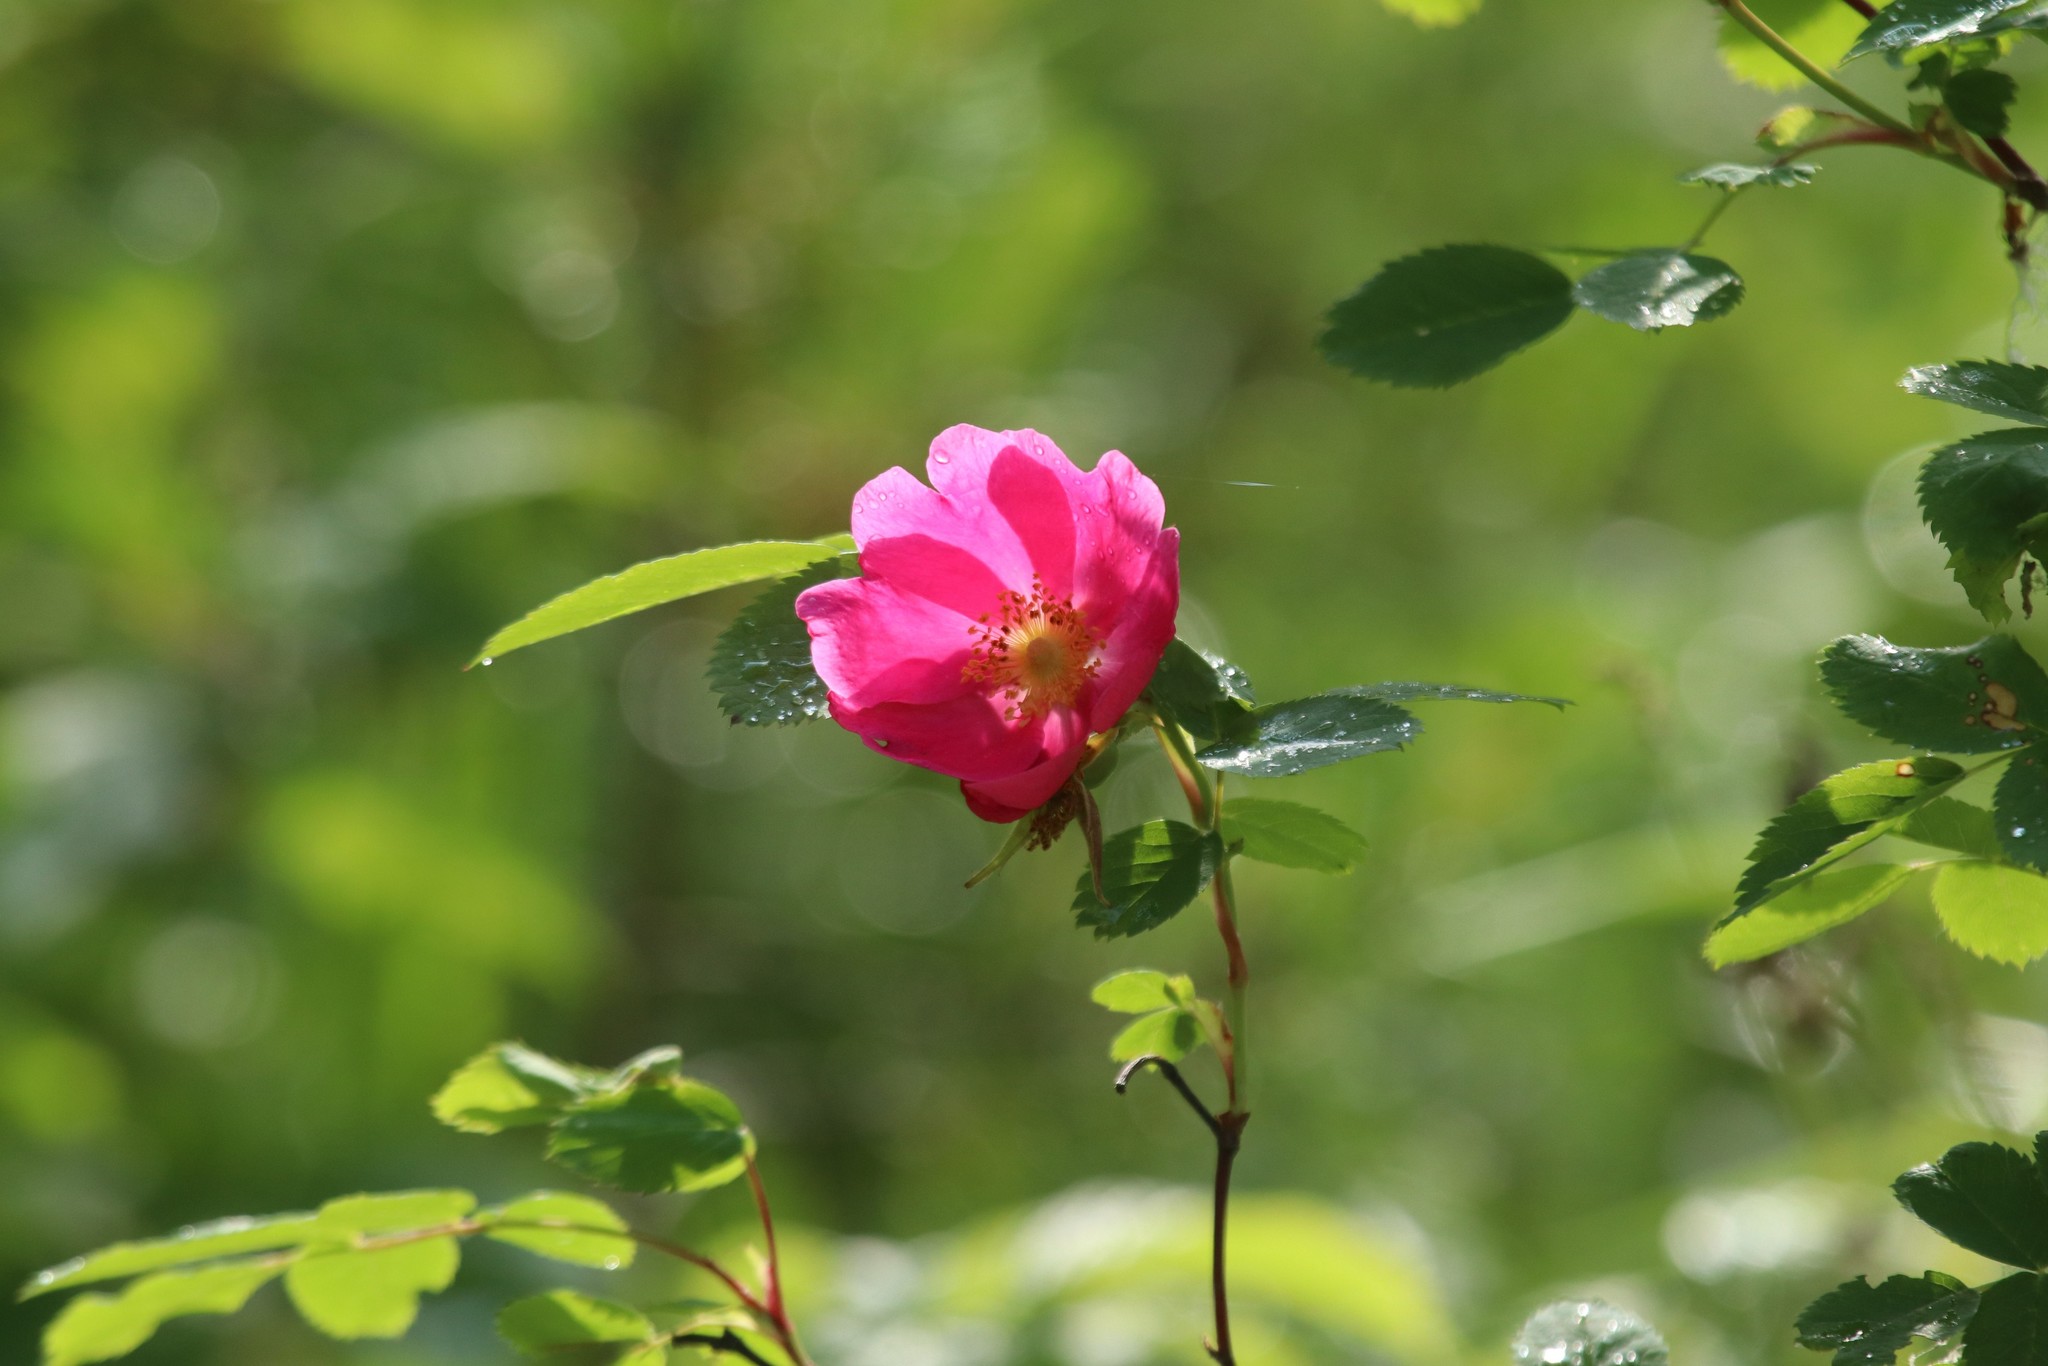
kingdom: Plantae
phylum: Tracheophyta
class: Magnoliopsida
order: Rosales
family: Rosaceae
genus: Rosa
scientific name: Rosa
